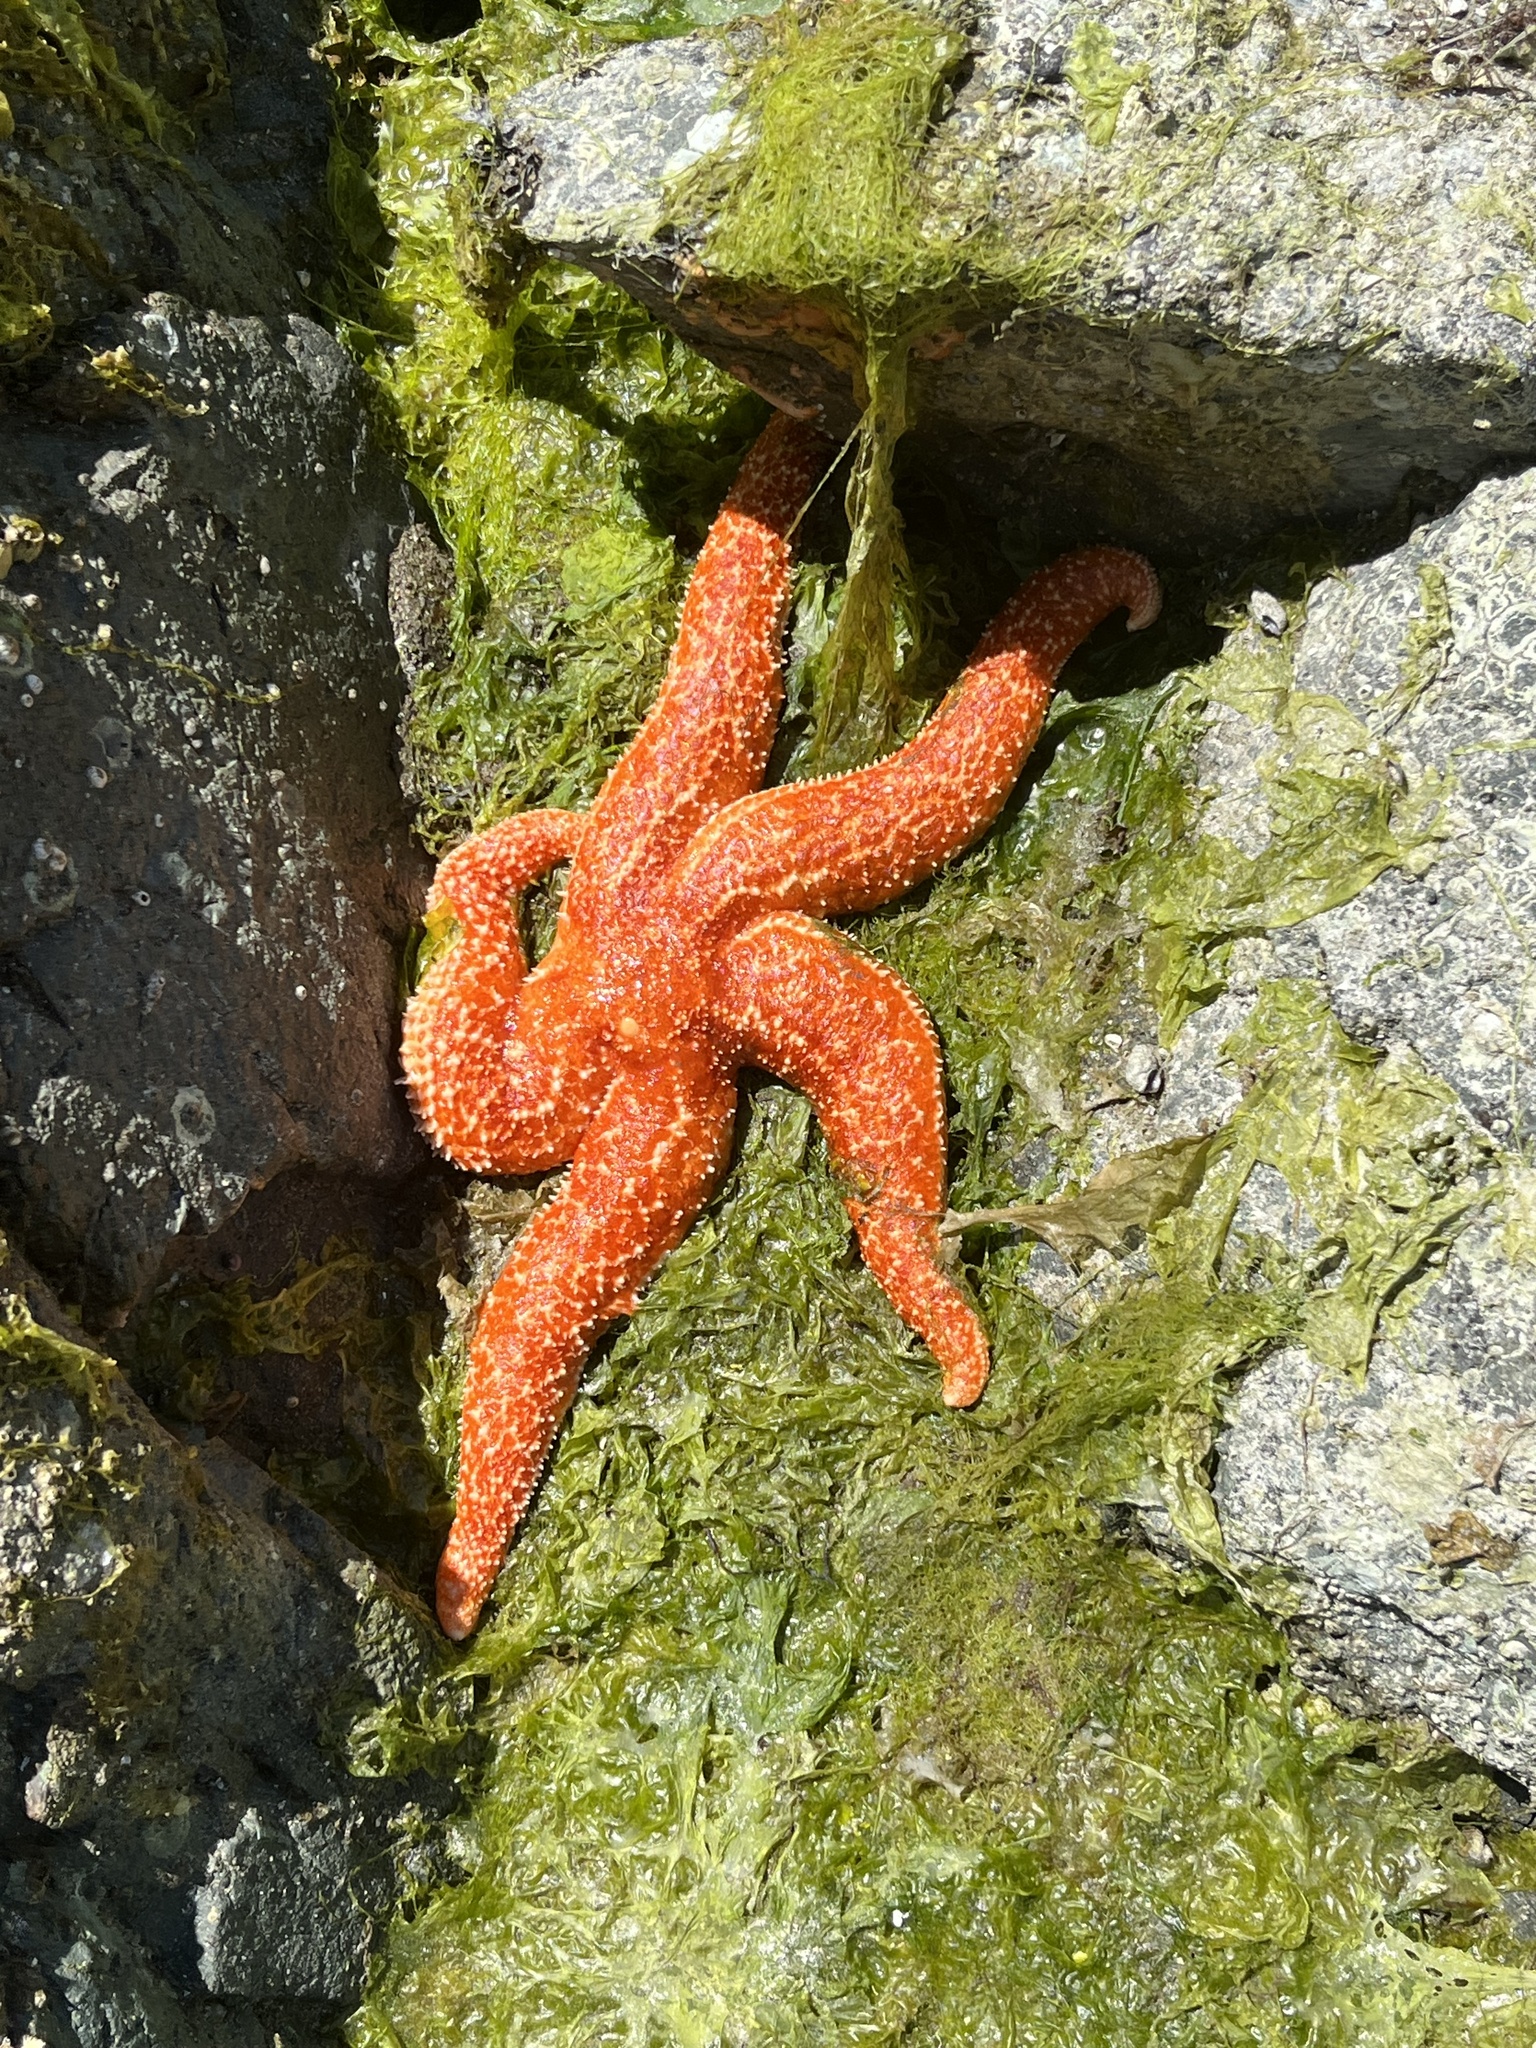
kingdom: Animalia
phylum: Echinodermata
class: Asteroidea
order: Forcipulatida
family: Asteriidae
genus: Evasterias
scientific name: Evasterias troschelii
